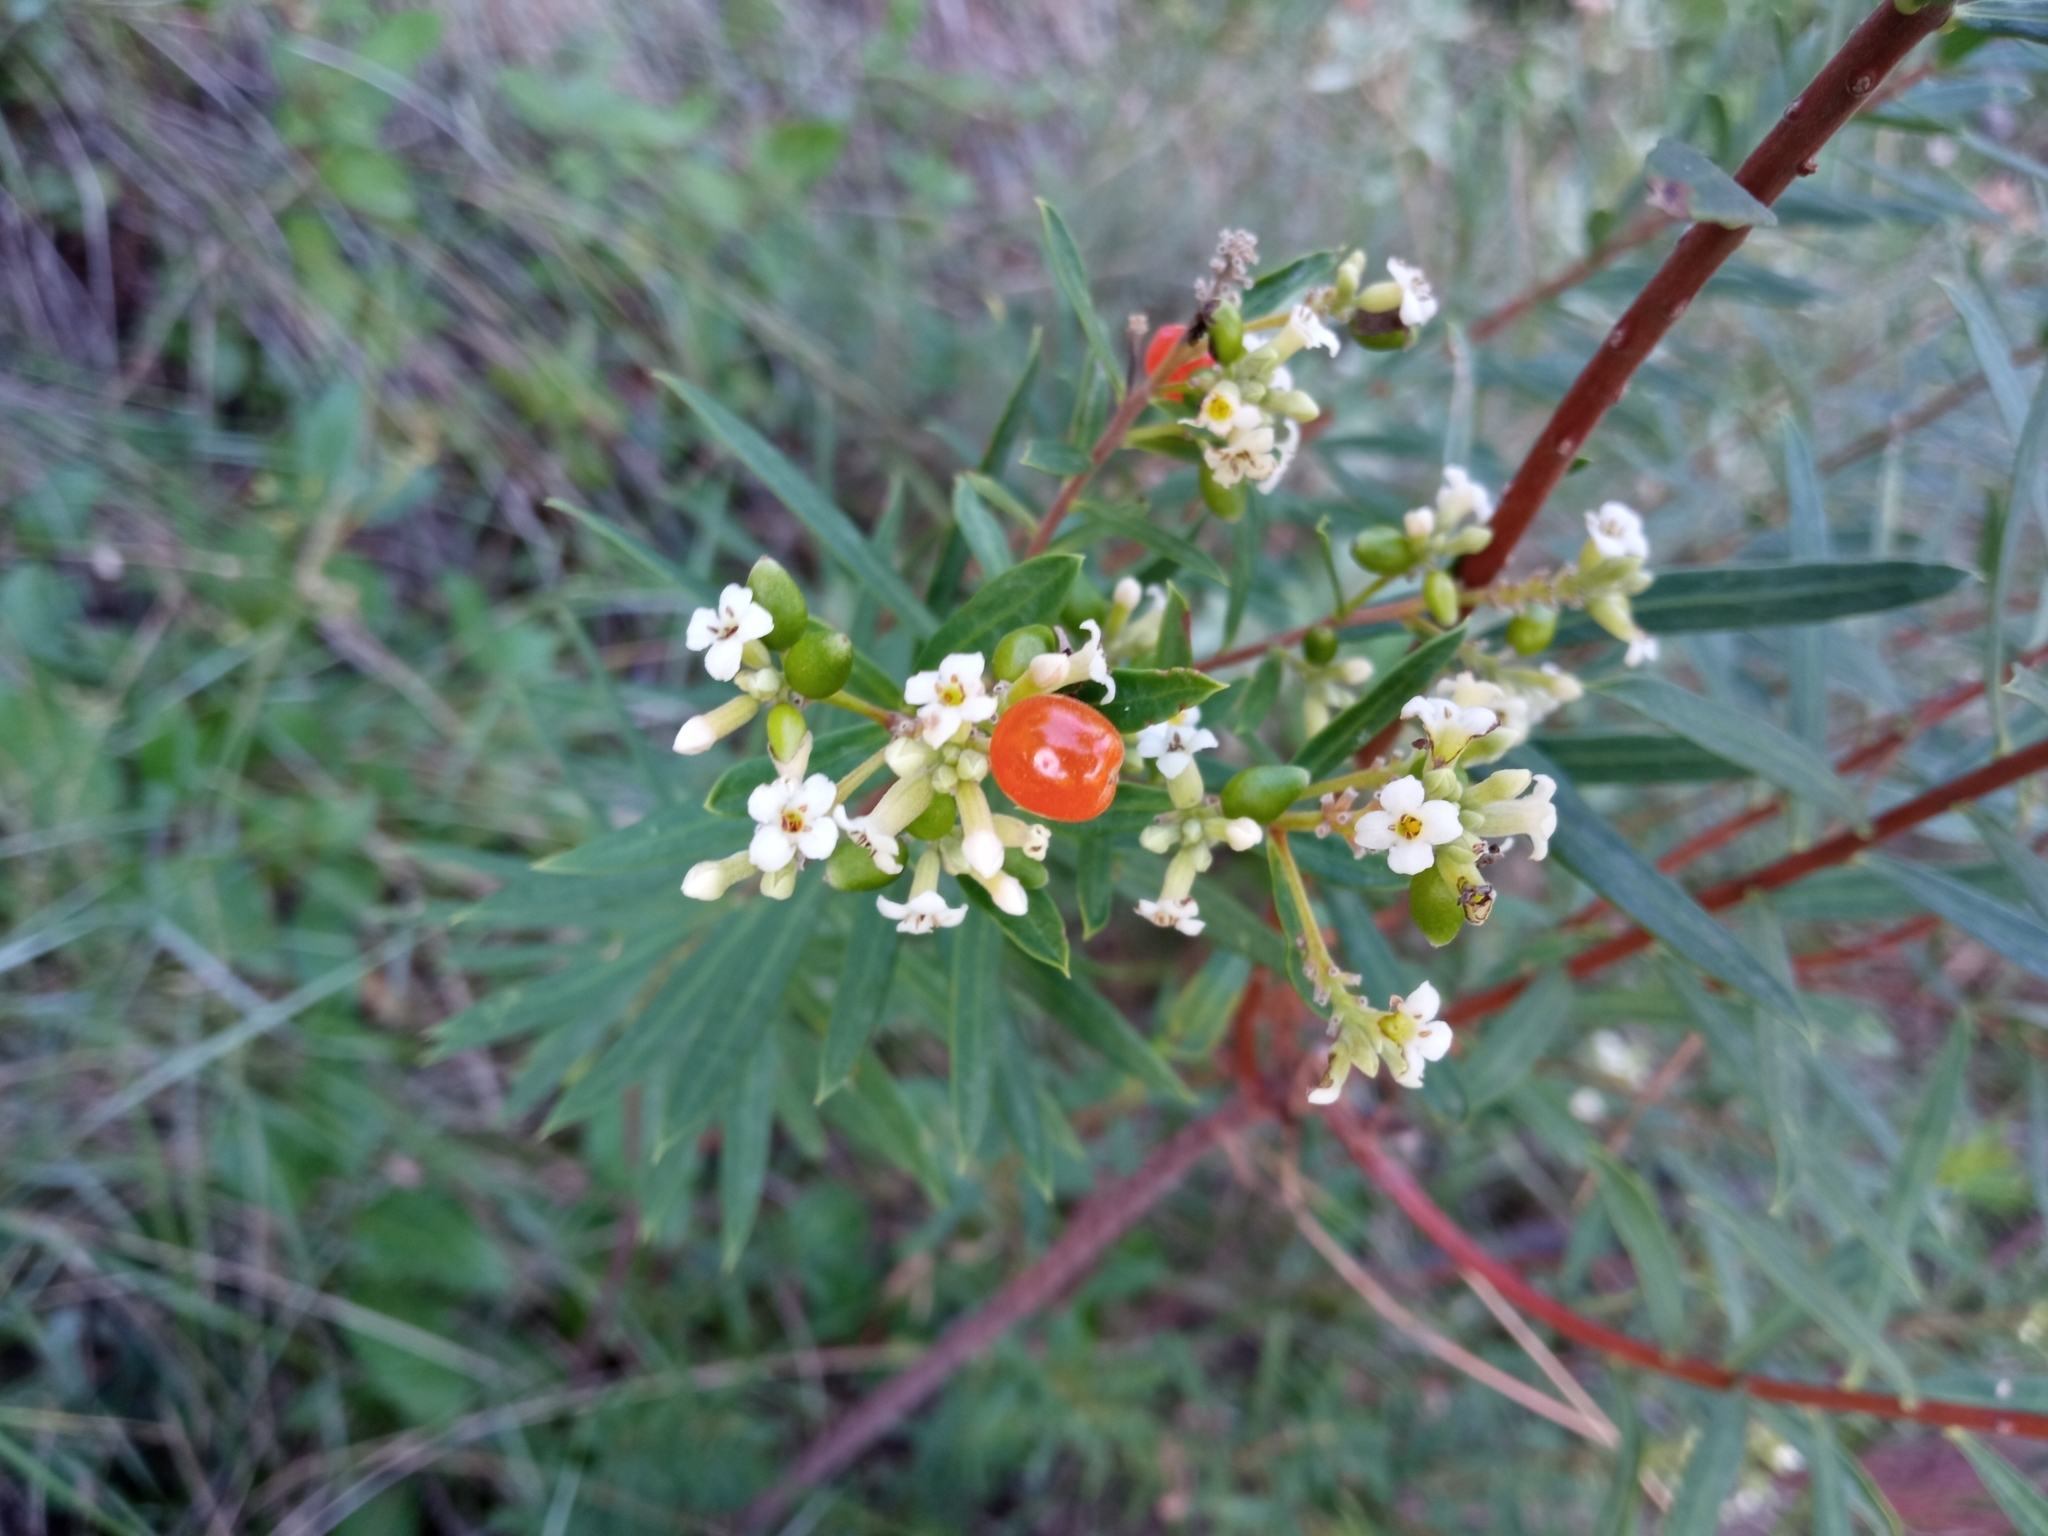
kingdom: Plantae
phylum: Tracheophyta
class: Magnoliopsida
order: Malvales
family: Thymelaeaceae
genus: Daphne
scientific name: Daphne gnidium
